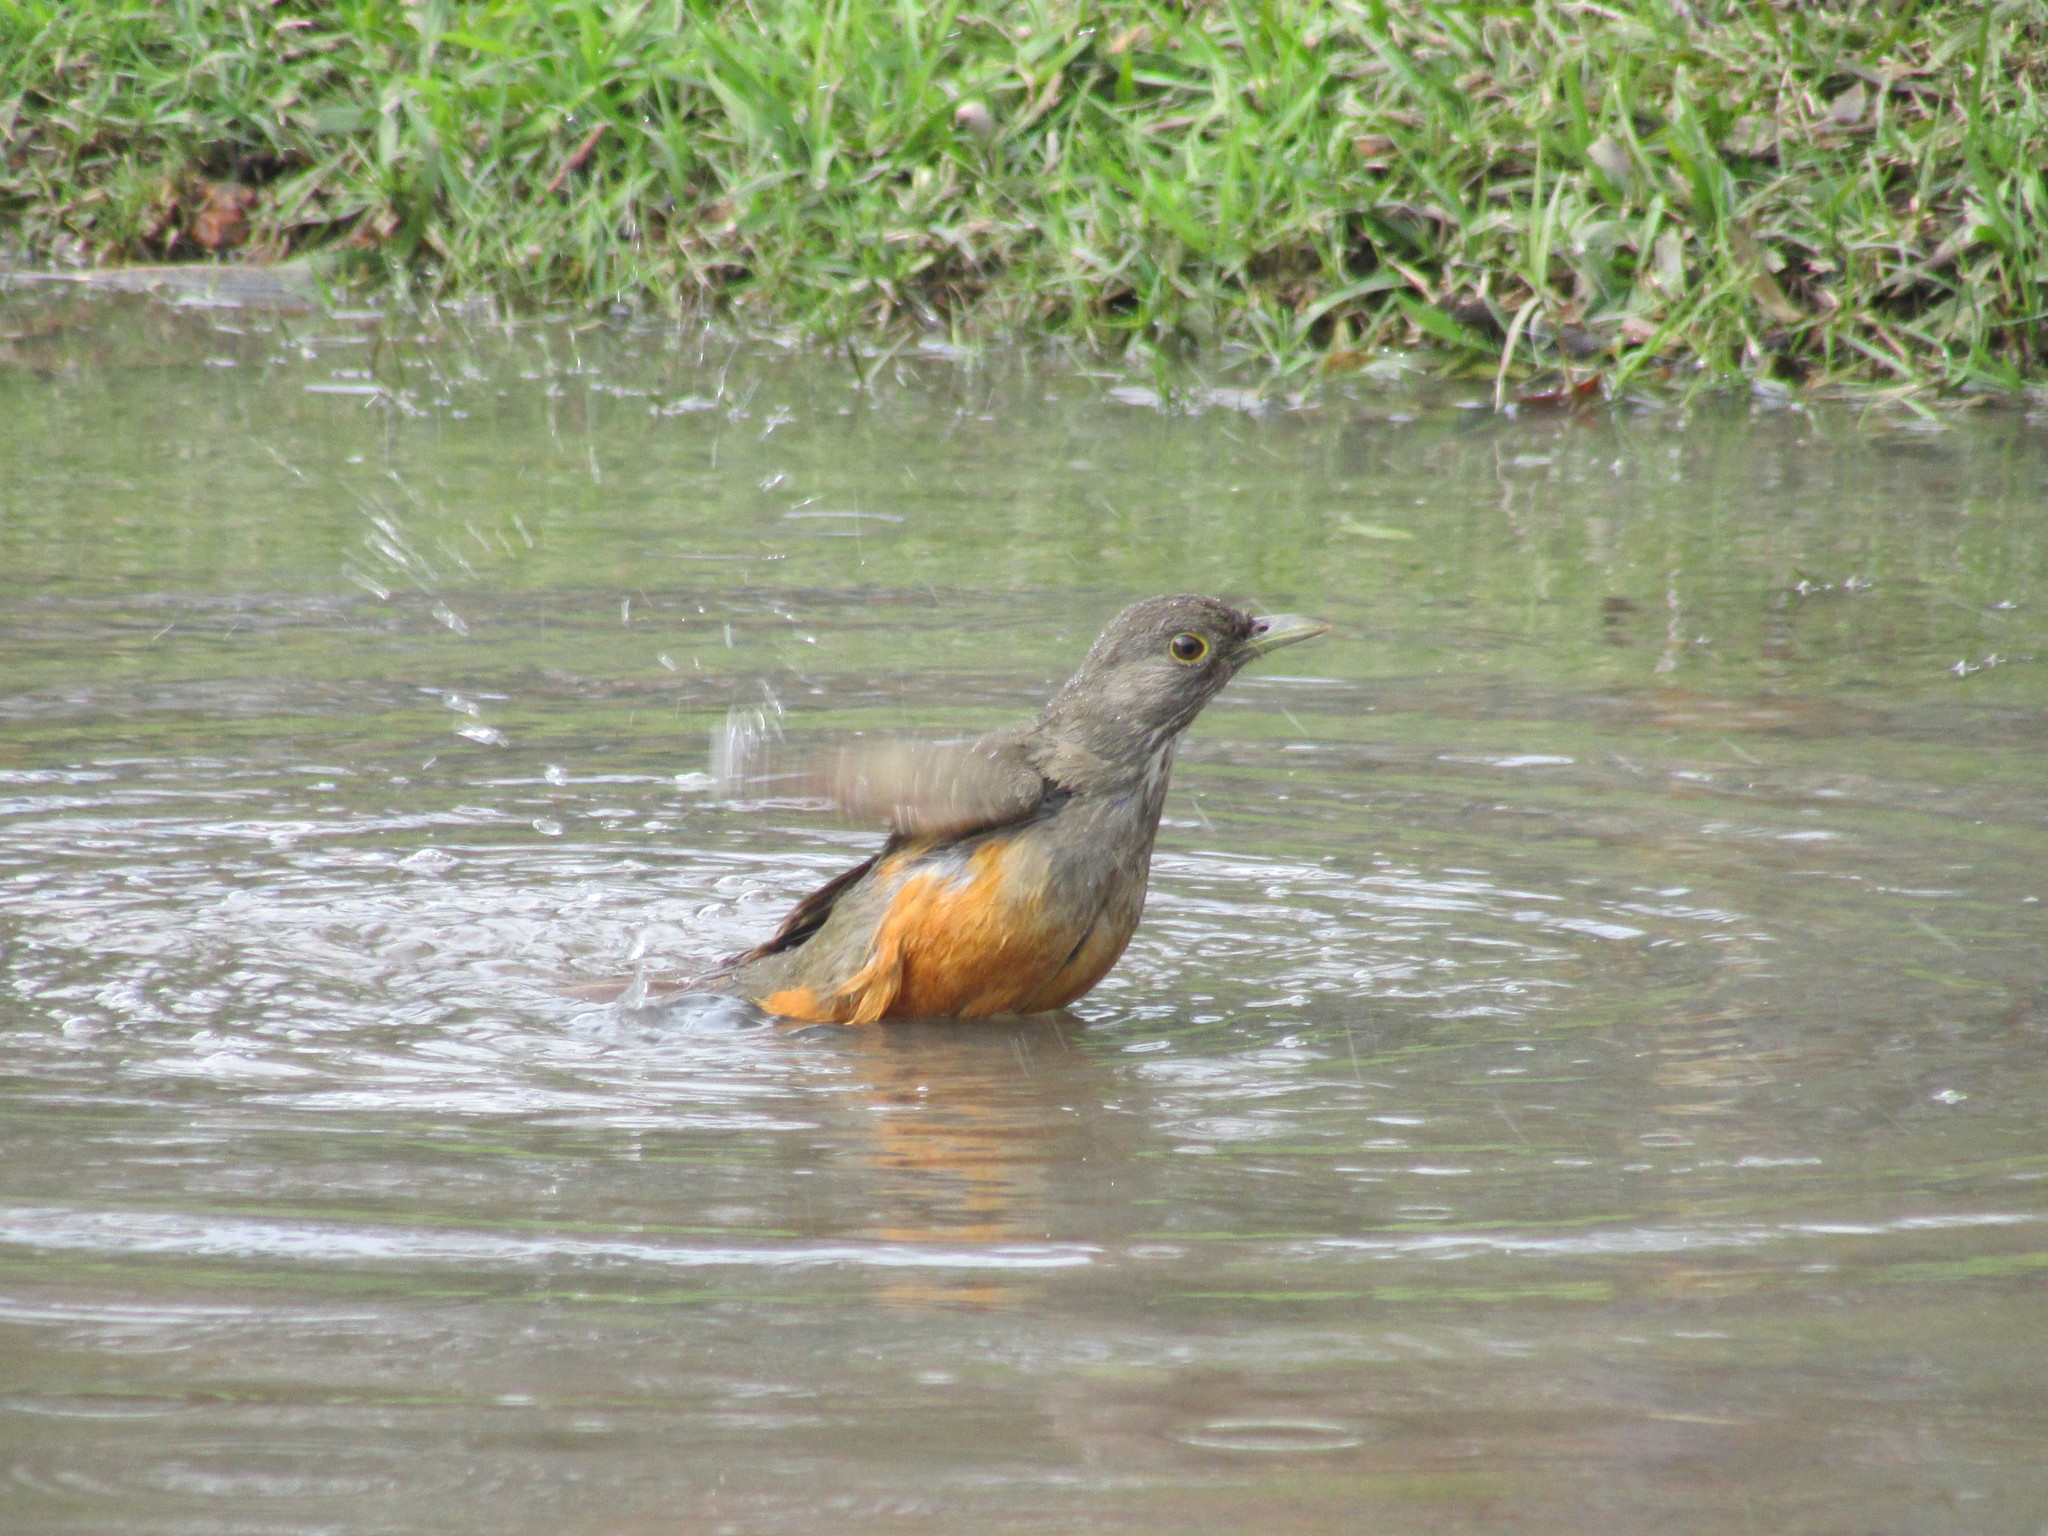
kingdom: Animalia
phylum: Chordata
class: Aves
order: Passeriformes
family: Turdidae
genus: Turdus
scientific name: Turdus rufiventris
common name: Rufous-bellied thrush
